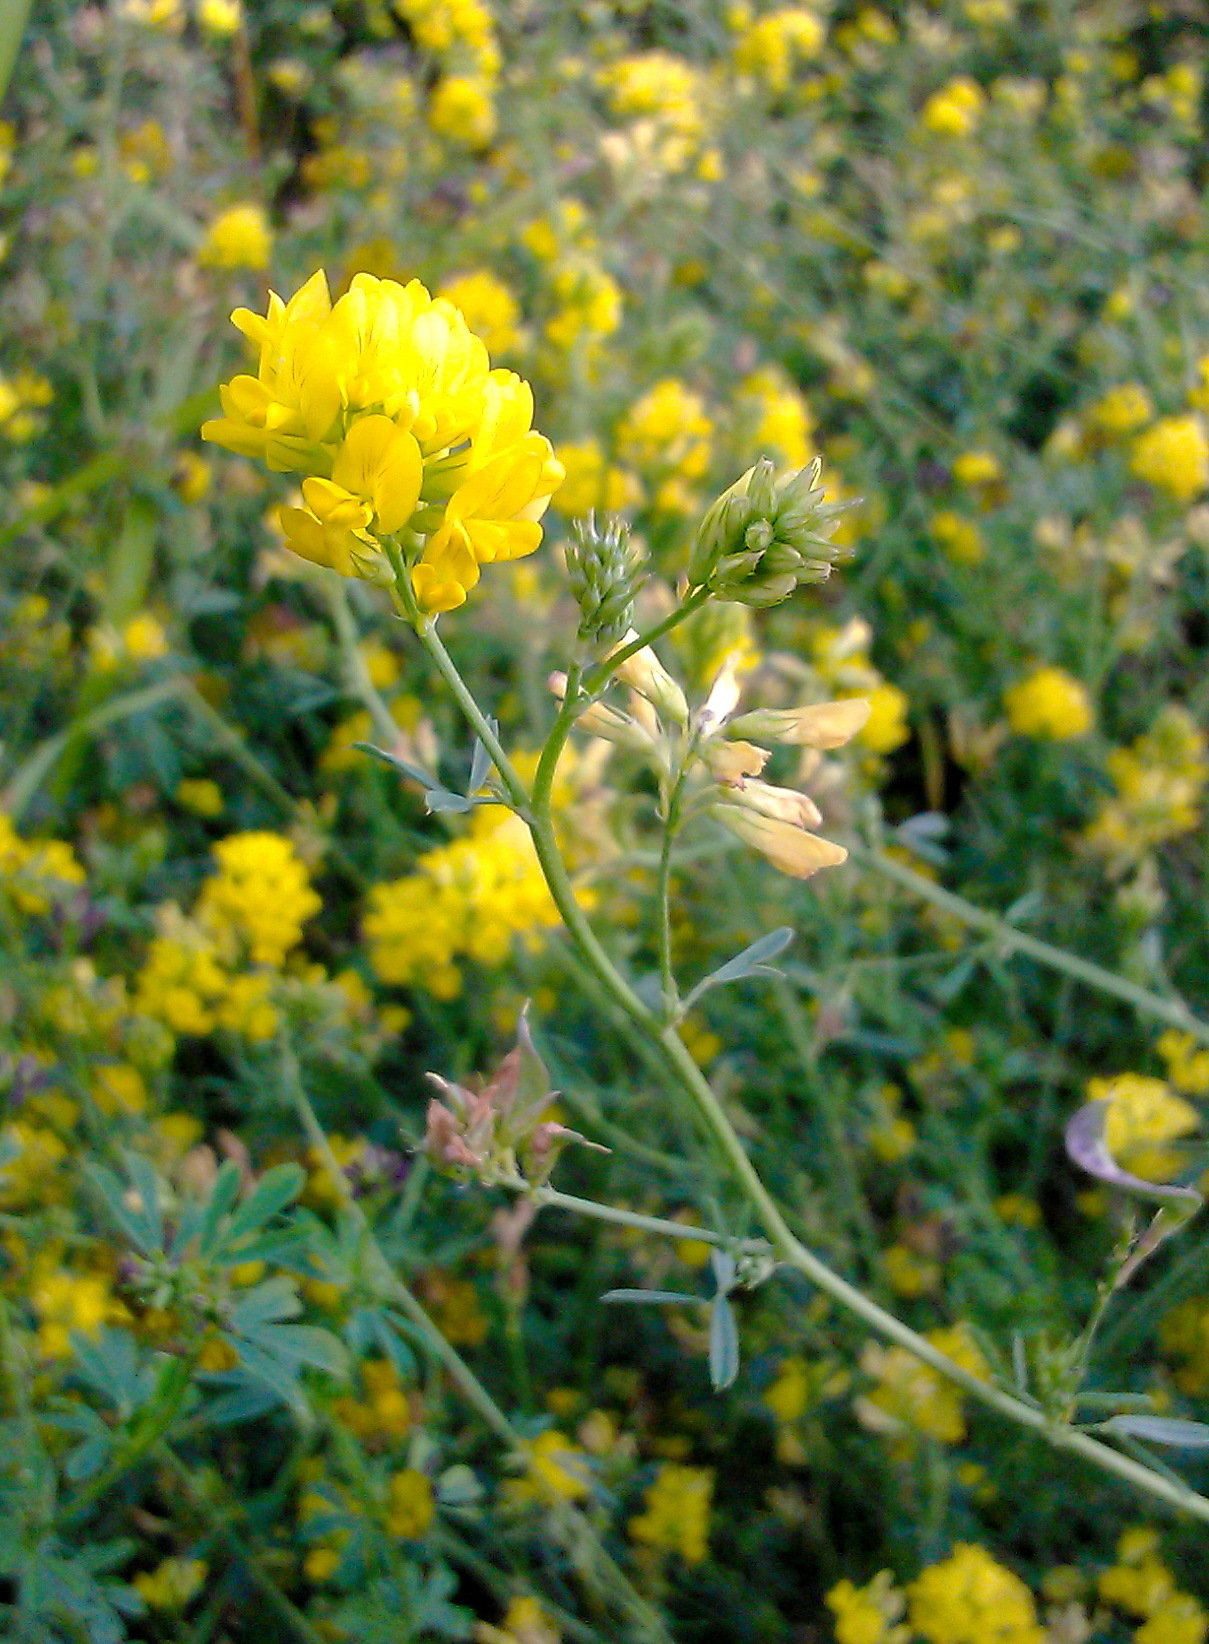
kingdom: Plantae
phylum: Tracheophyta
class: Magnoliopsida
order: Fabales
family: Fabaceae
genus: Medicago
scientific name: Medicago falcata
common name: Sickle medick
